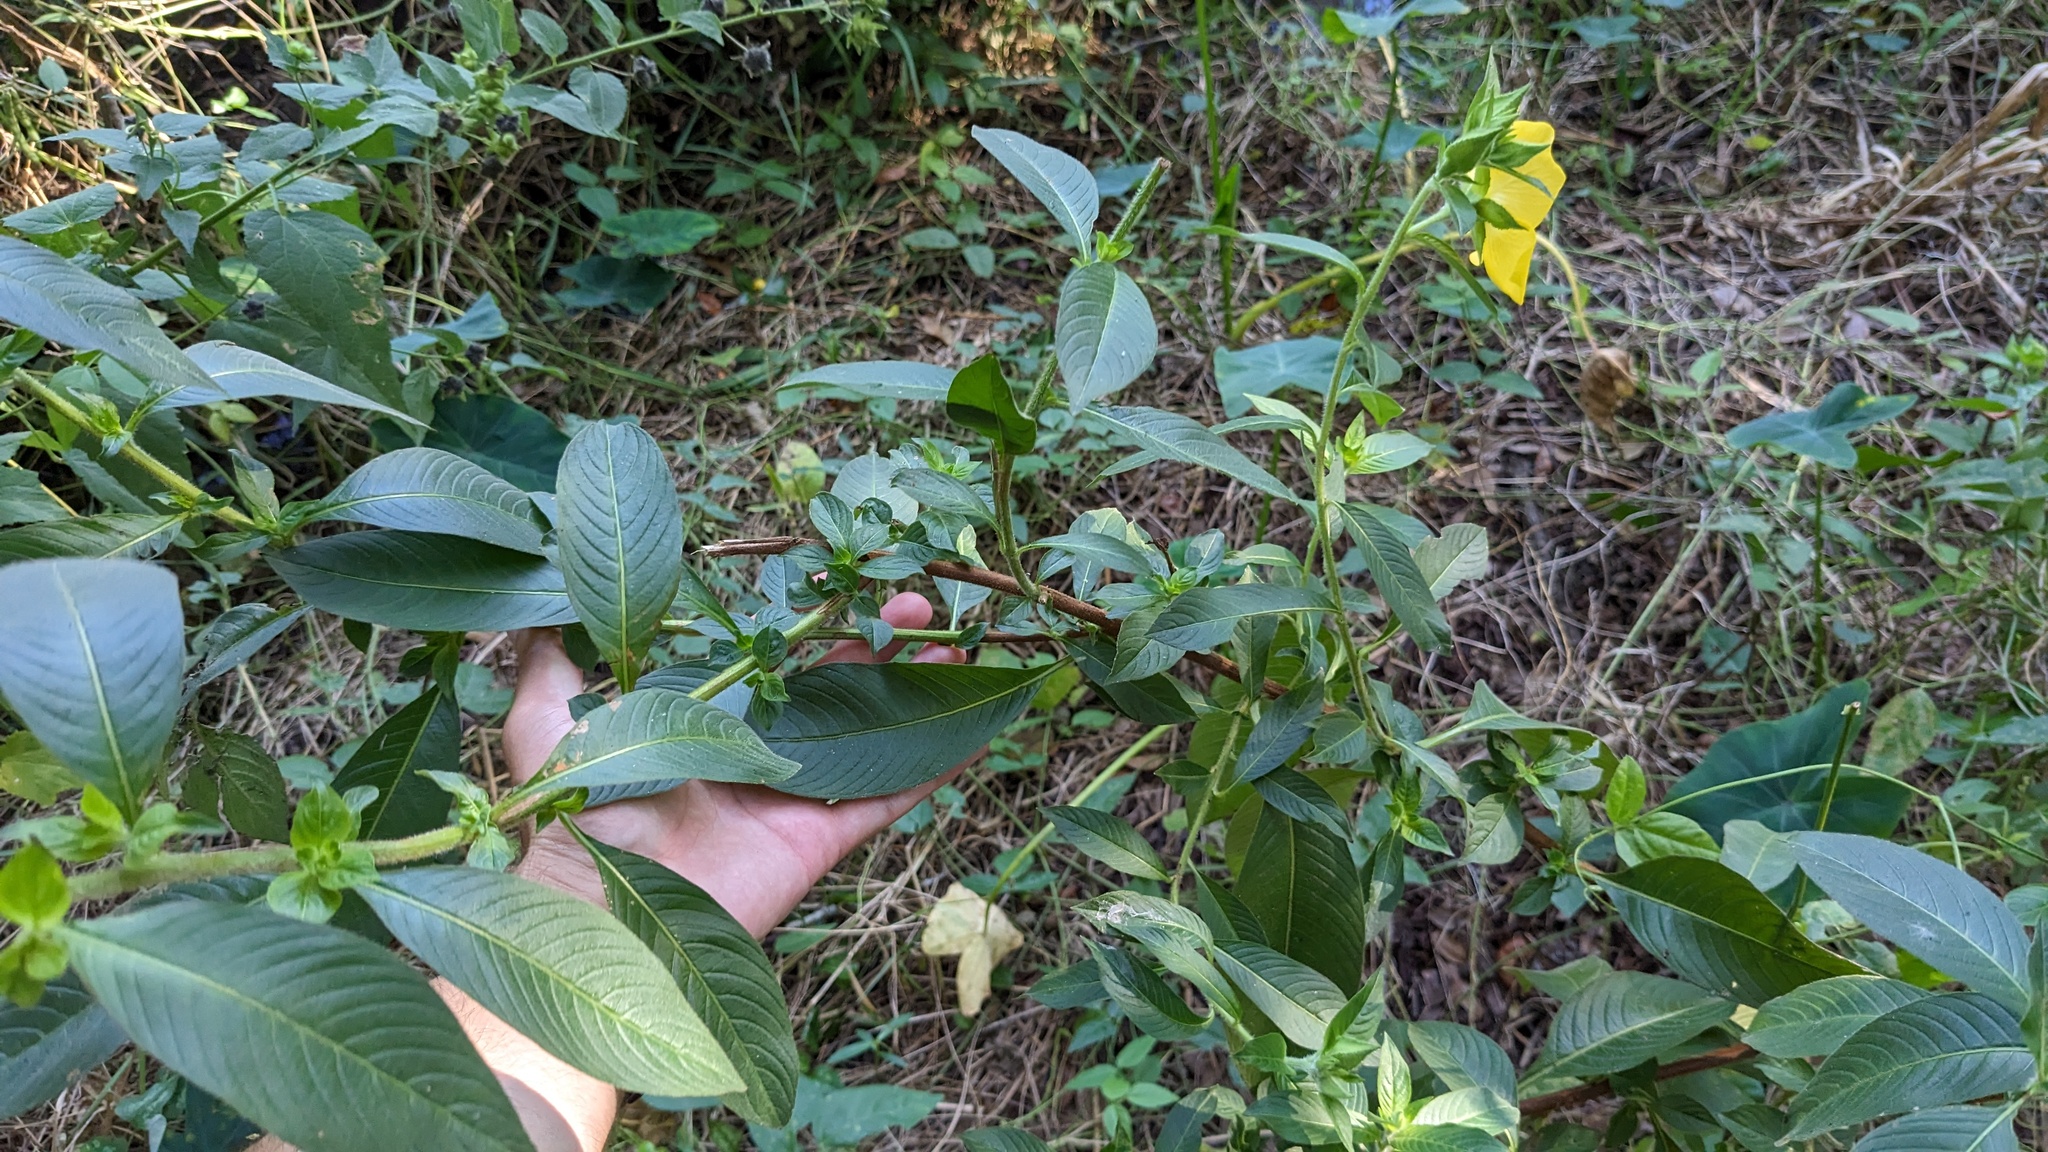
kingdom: Plantae
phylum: Tracheophyta
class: Magnoliopsida
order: Myrtales
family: Onagraceae
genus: Ludwigia
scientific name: Ludwigia peruviana
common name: Peruvian primrose-willow
